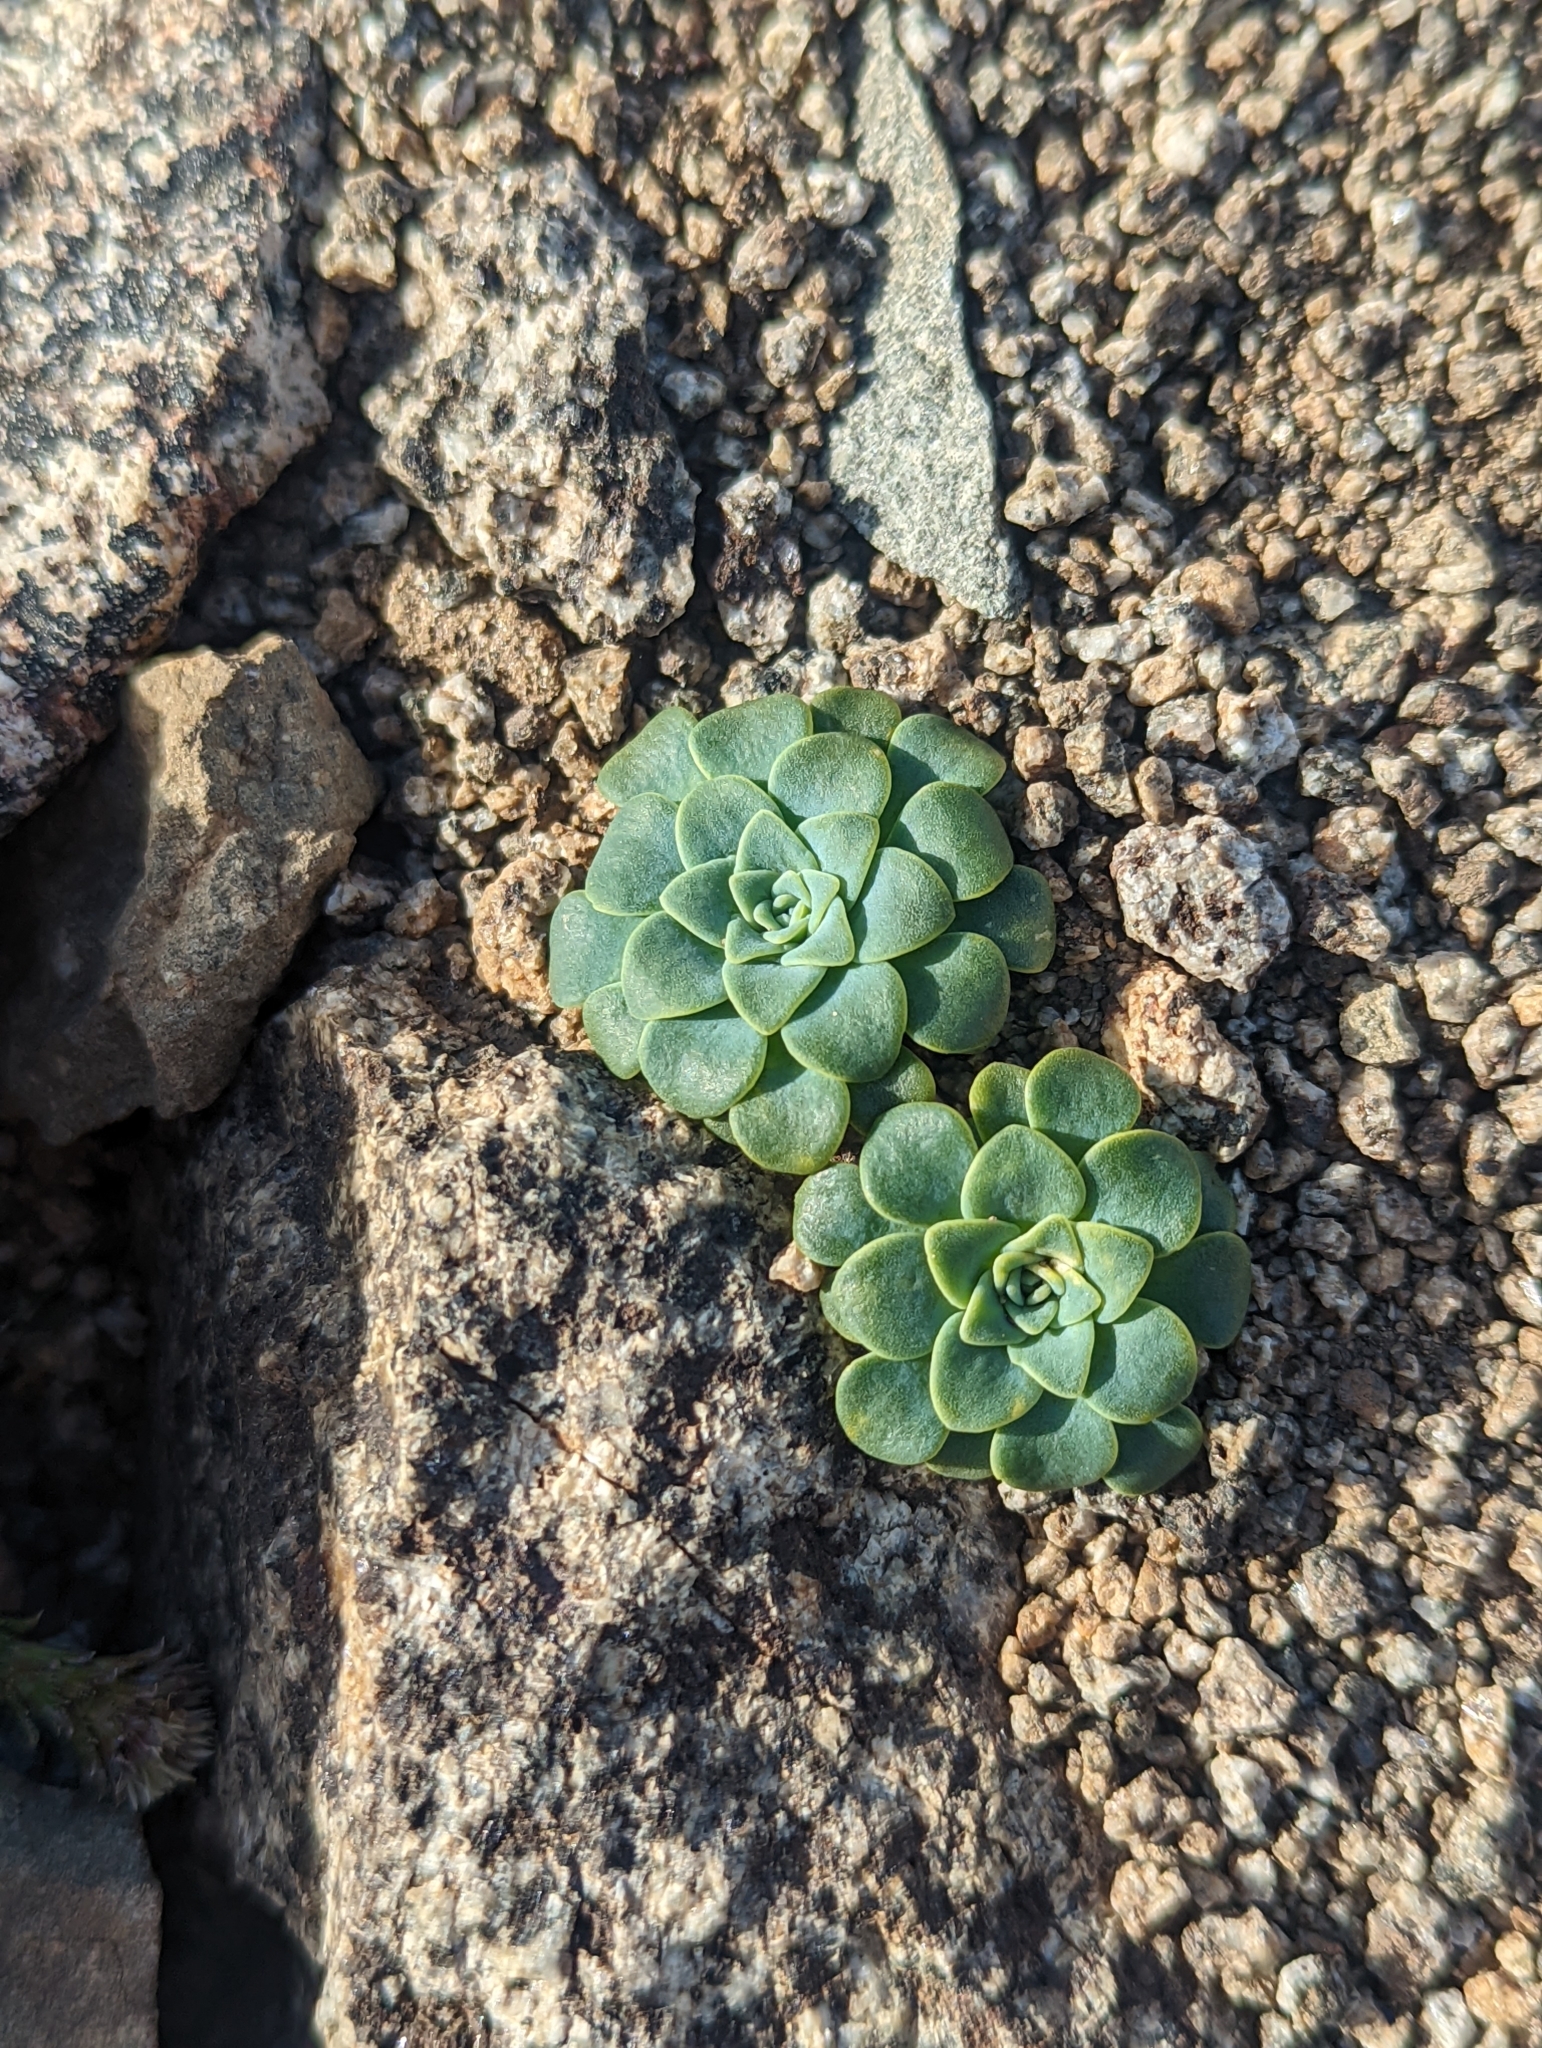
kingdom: Plantae
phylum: Tracheophyta
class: Magnoliopsida
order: Asterales
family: Calyceraceae
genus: Moschopsis
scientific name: Moschopsis rosulata
